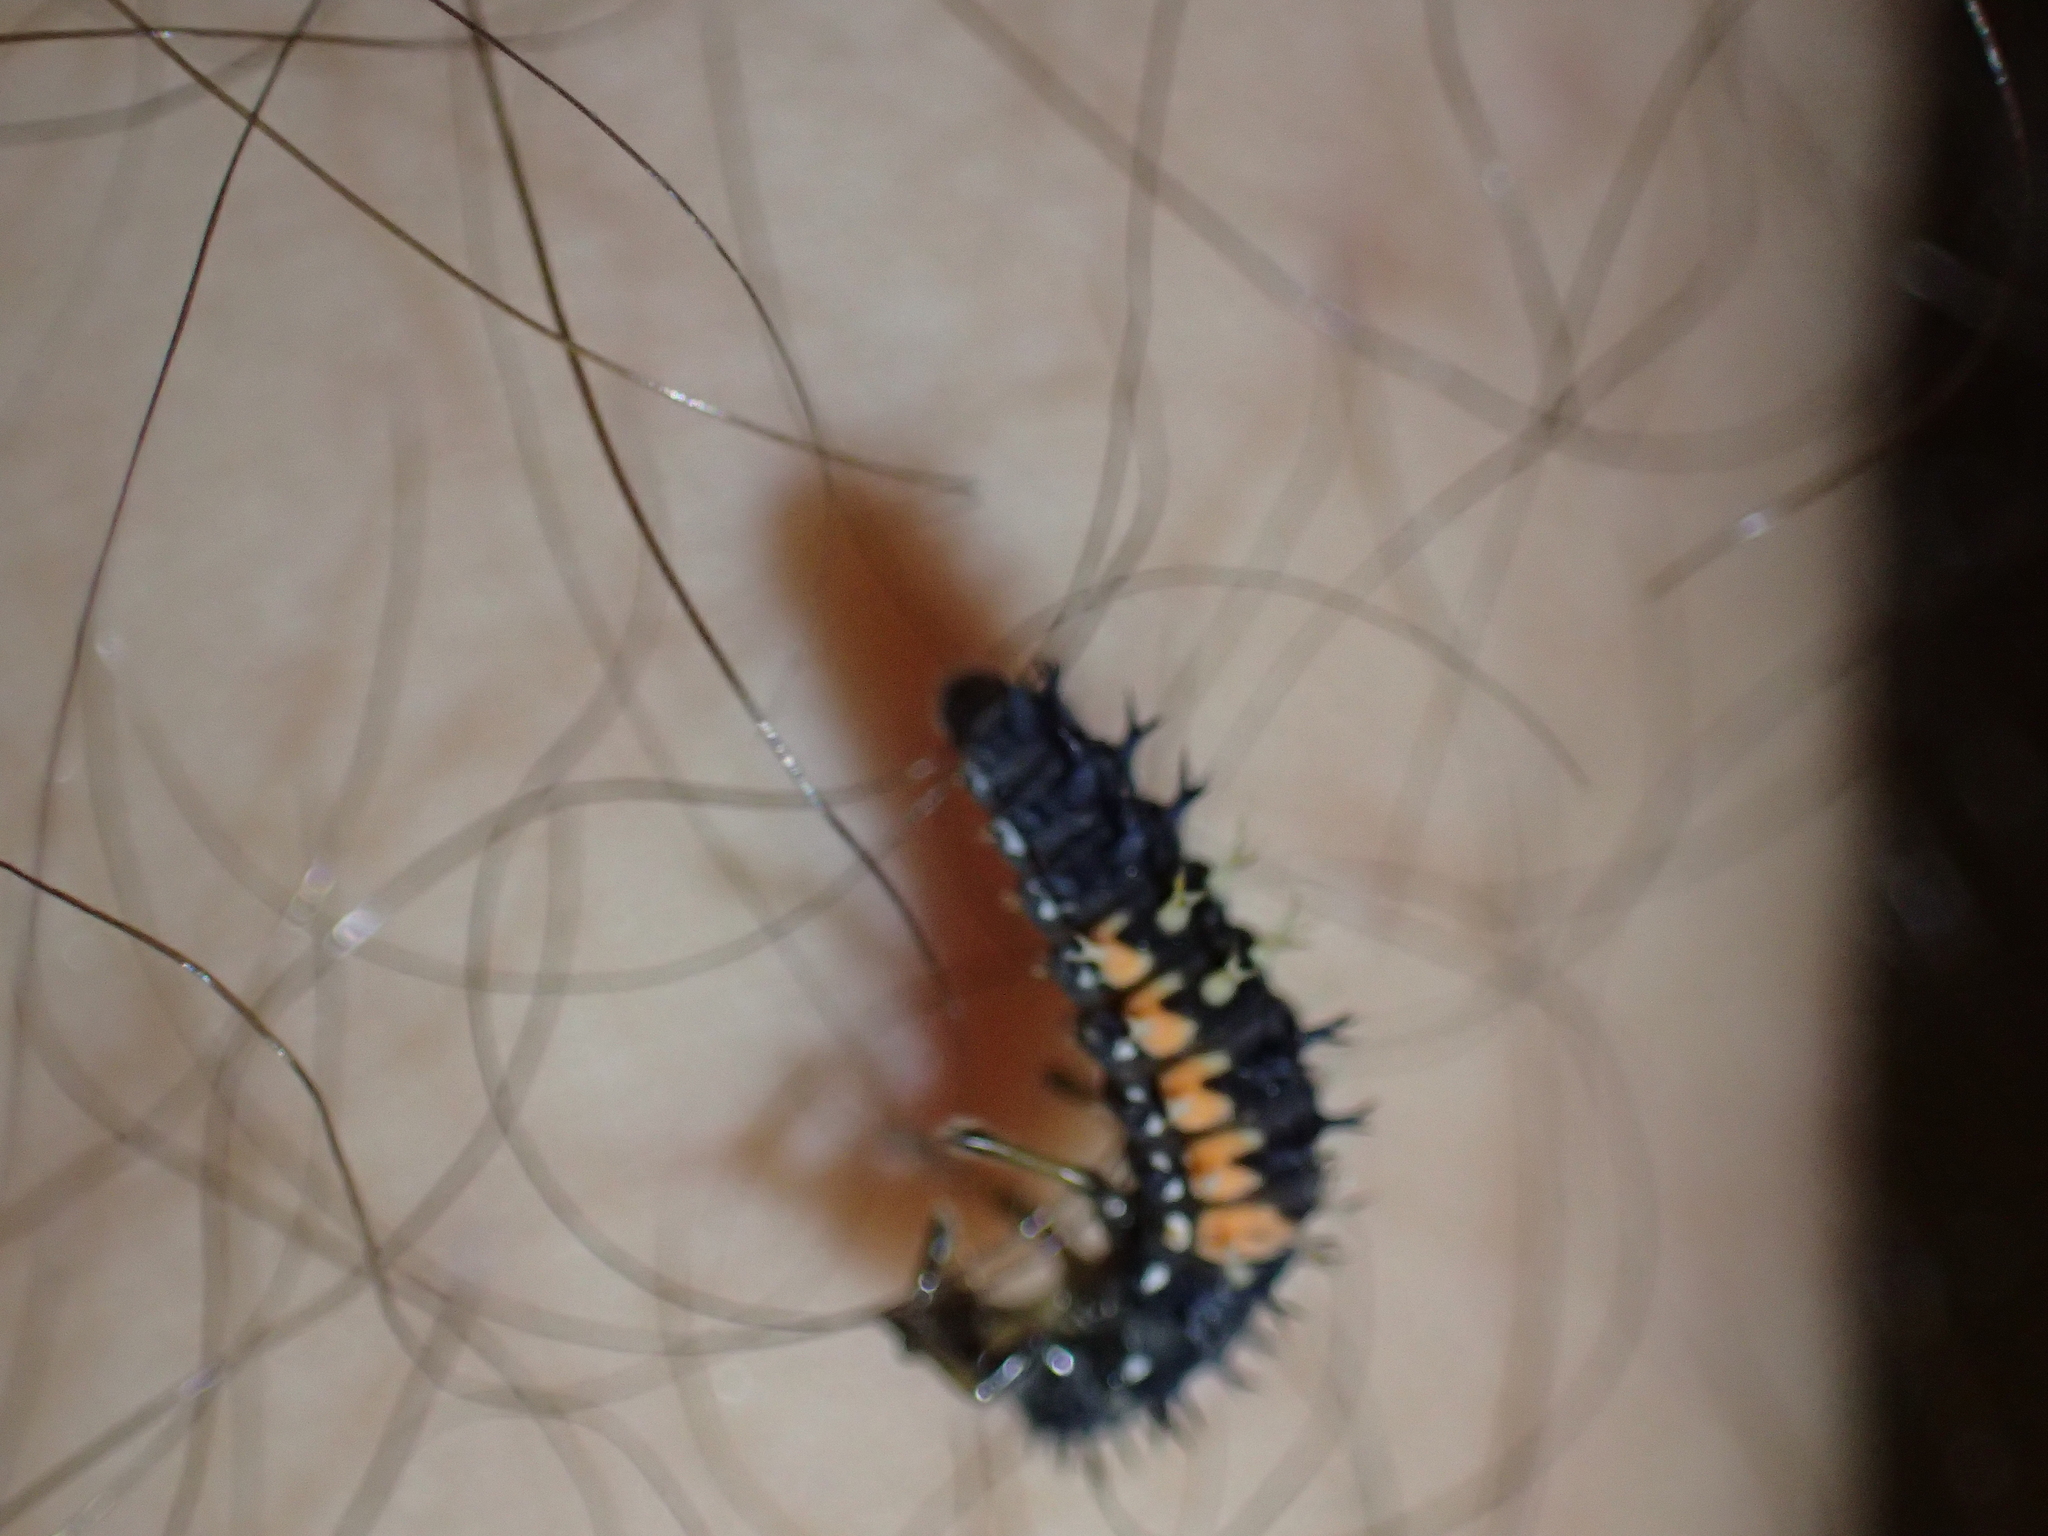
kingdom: Animalia
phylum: Arthropoda
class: Insecta
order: Coleoptera
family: Coccinellidae
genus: Harmonia
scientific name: Harmonia axyridis
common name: Harlequin ladybird
